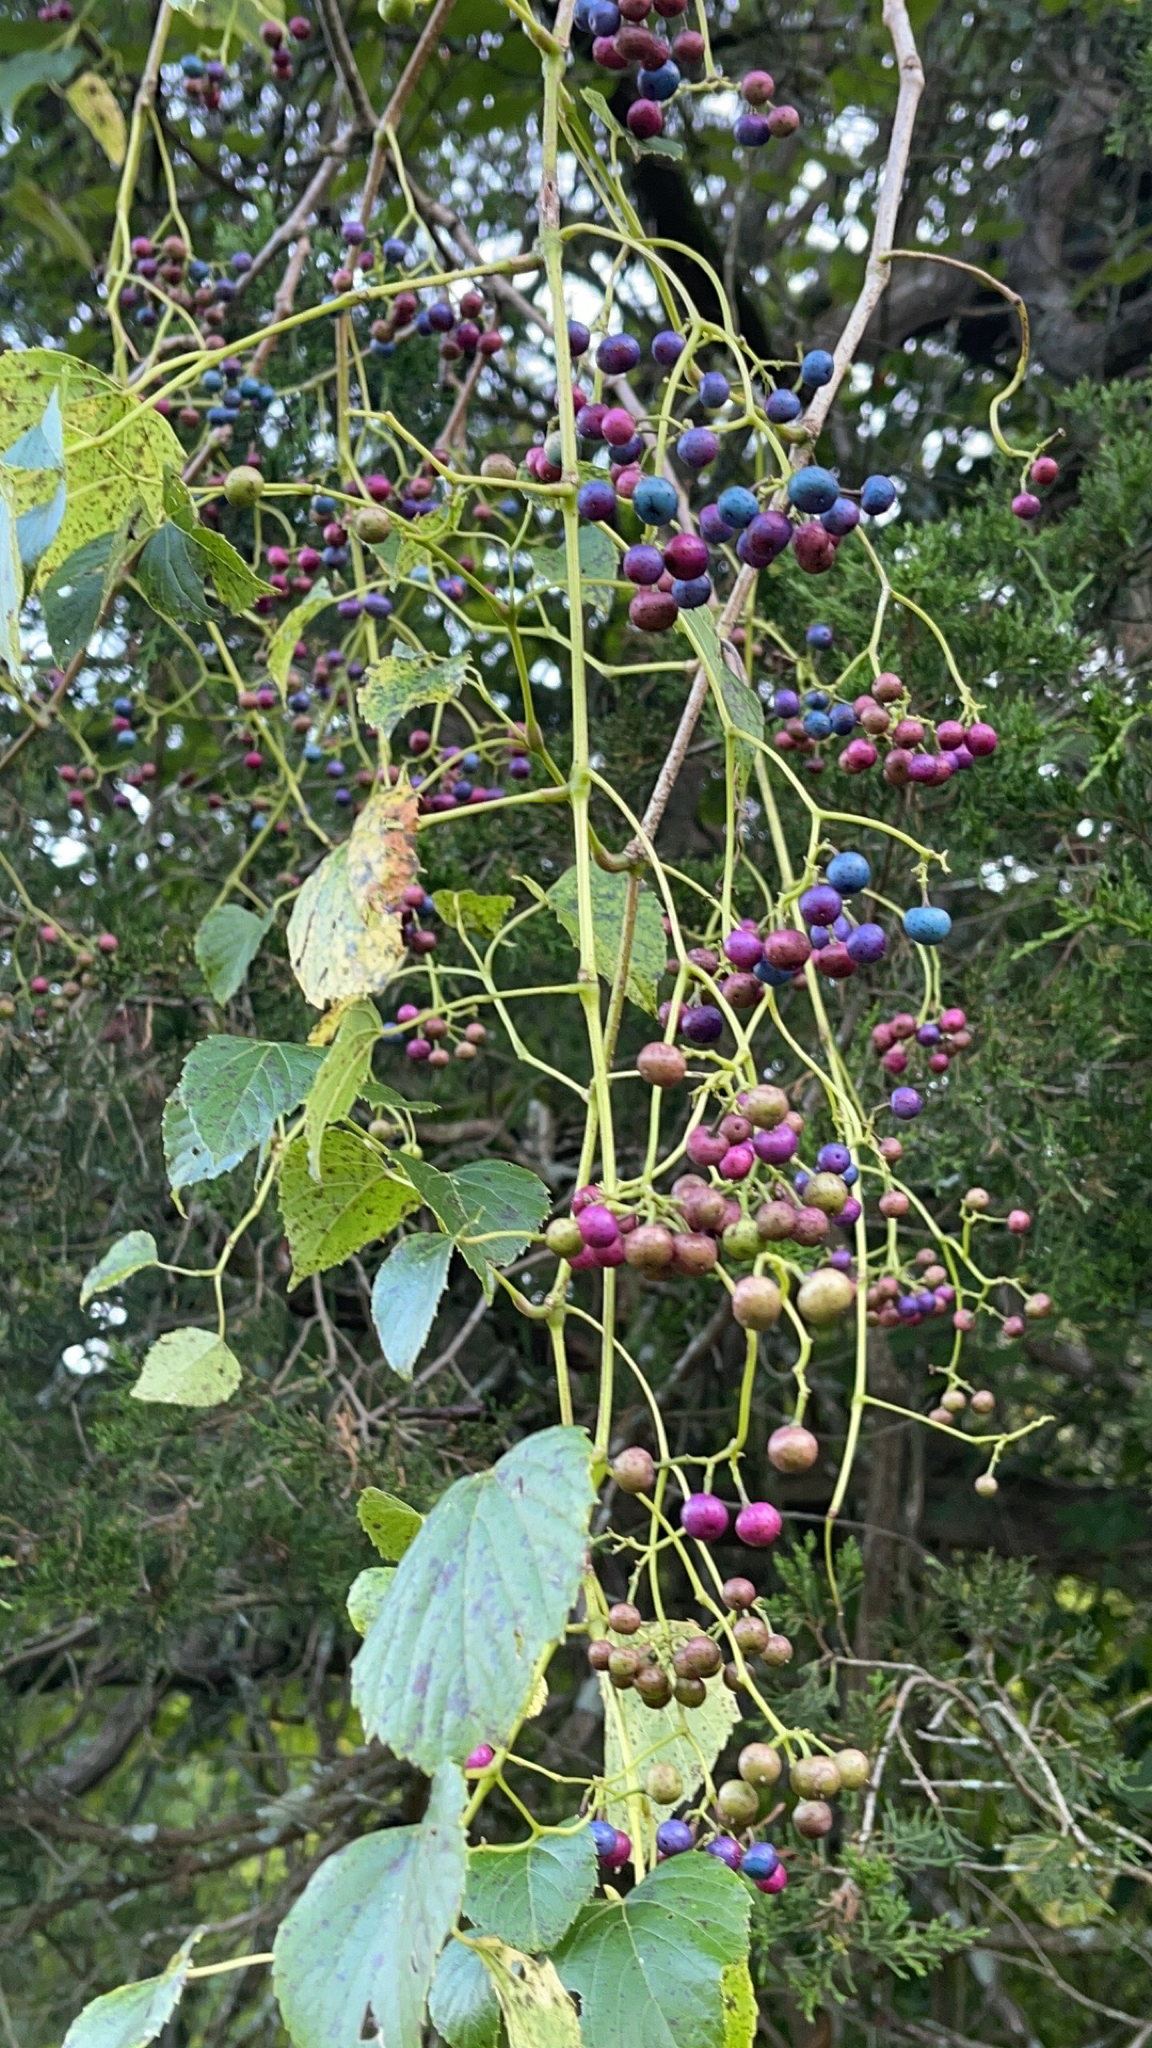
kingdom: Plantae
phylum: Tracheophyta
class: Magnoliopsida
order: Vitales
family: Vitaceae
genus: Ampelopsis
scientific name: Ampelopsis cordata
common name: Heart-leaf ampelopsis
